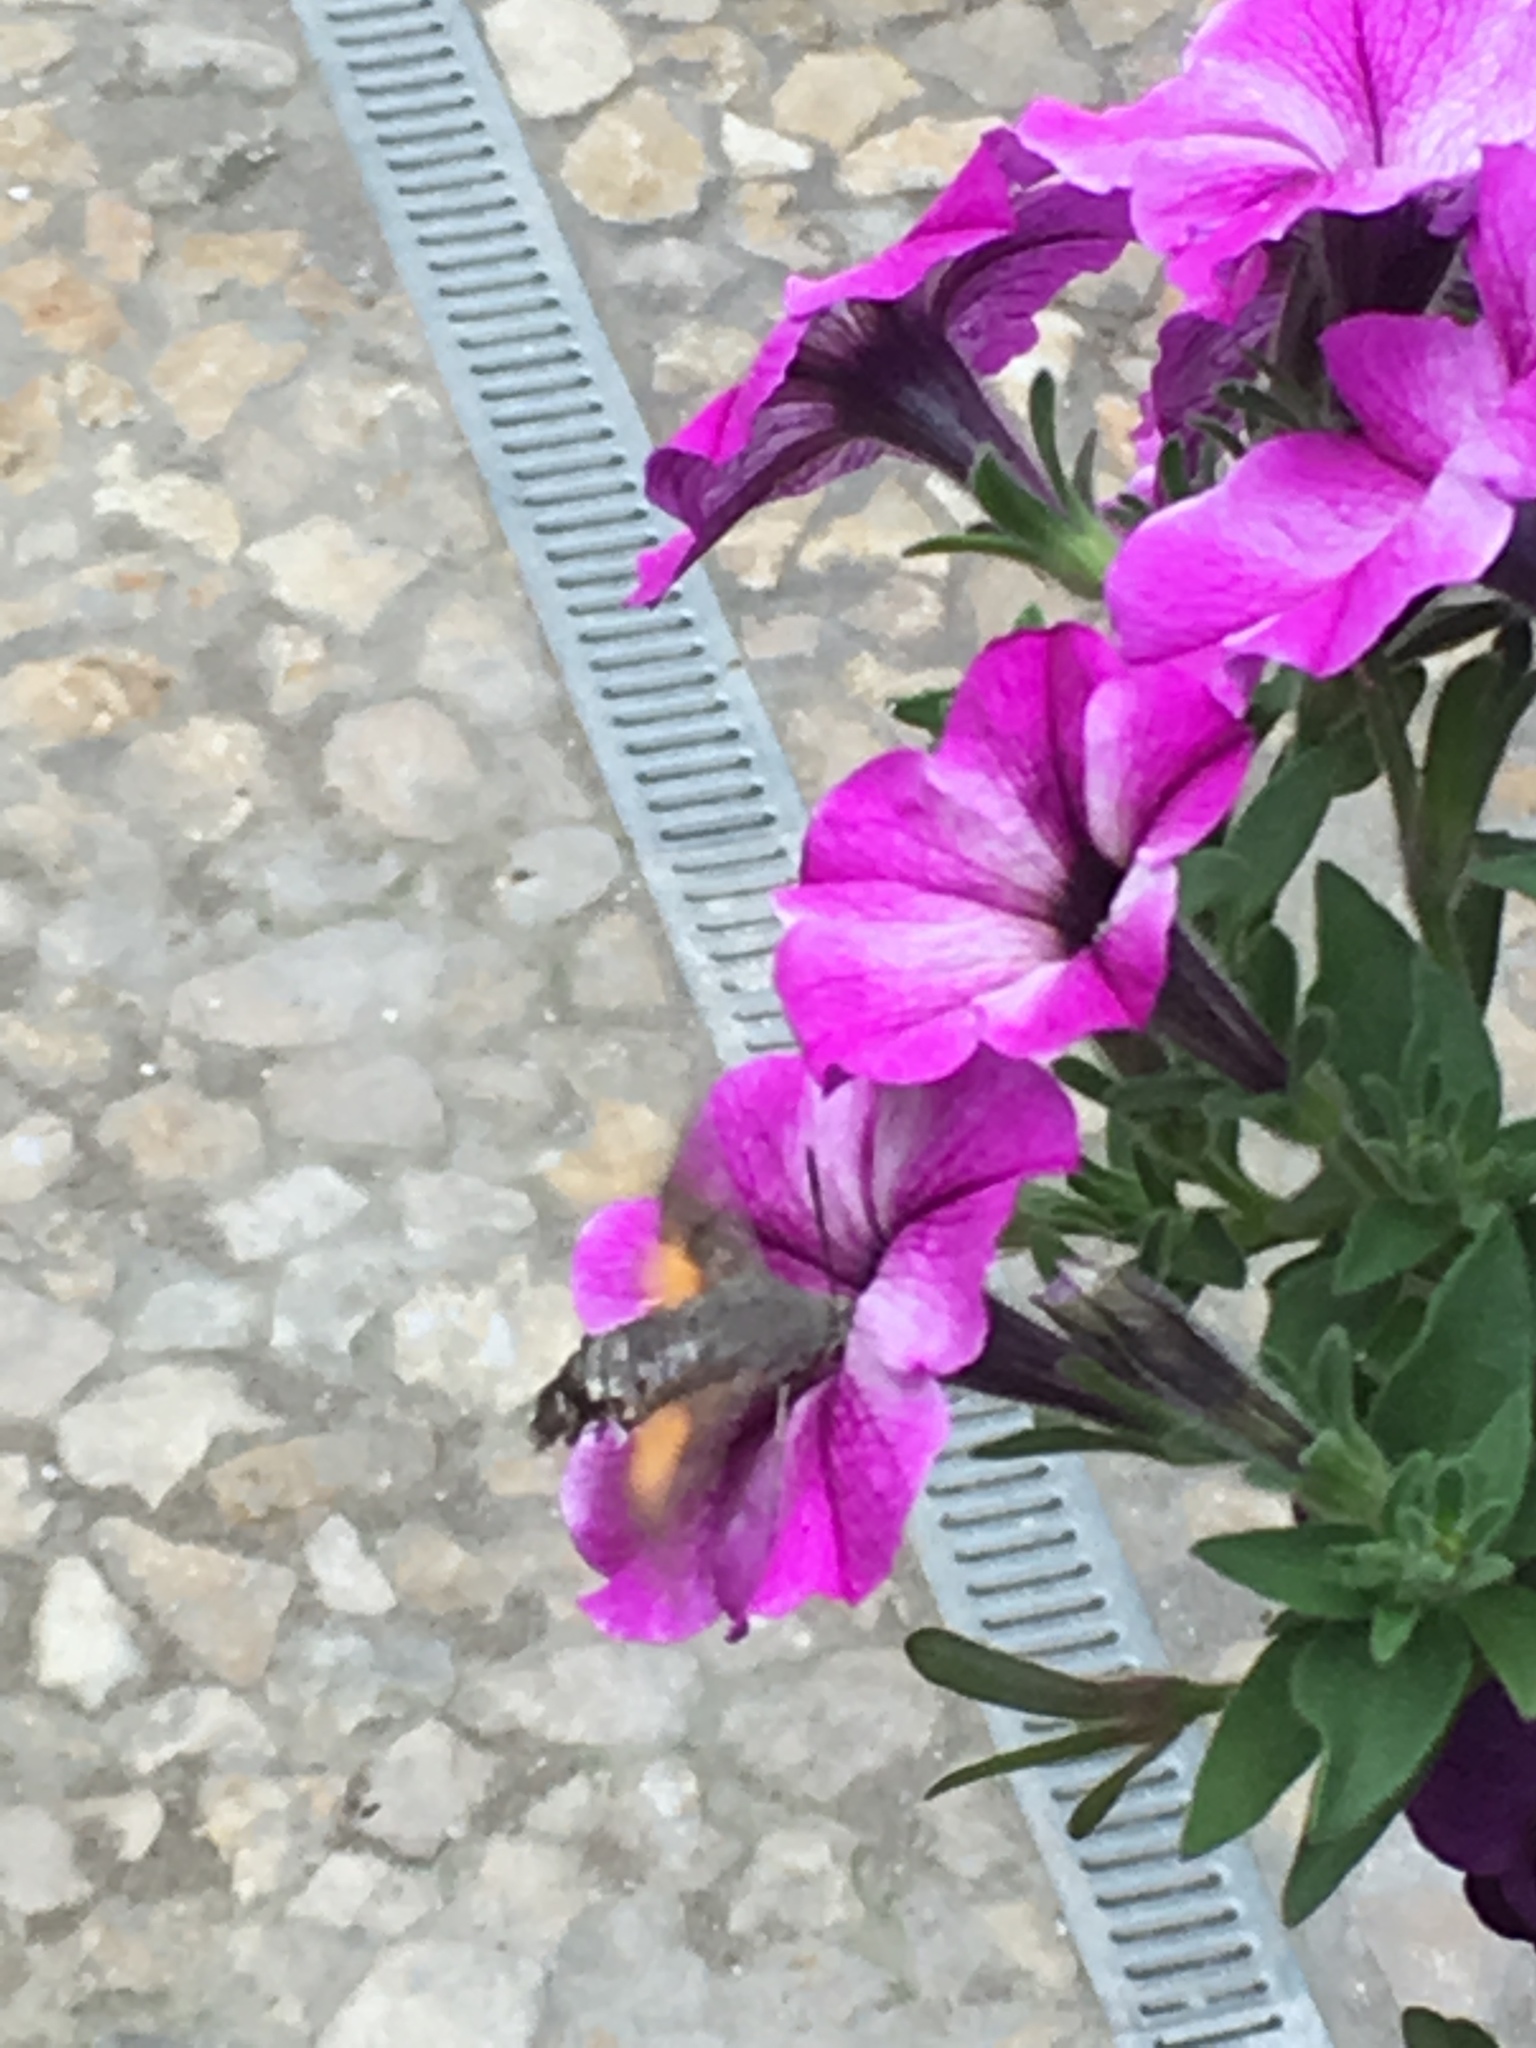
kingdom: Animalia
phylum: Arthropoda
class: Insecta
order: Lepidoptera
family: Sphingidae
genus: Macroglossum
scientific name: Macroglossum stellatarum
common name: Humming-bird hawk-moth
